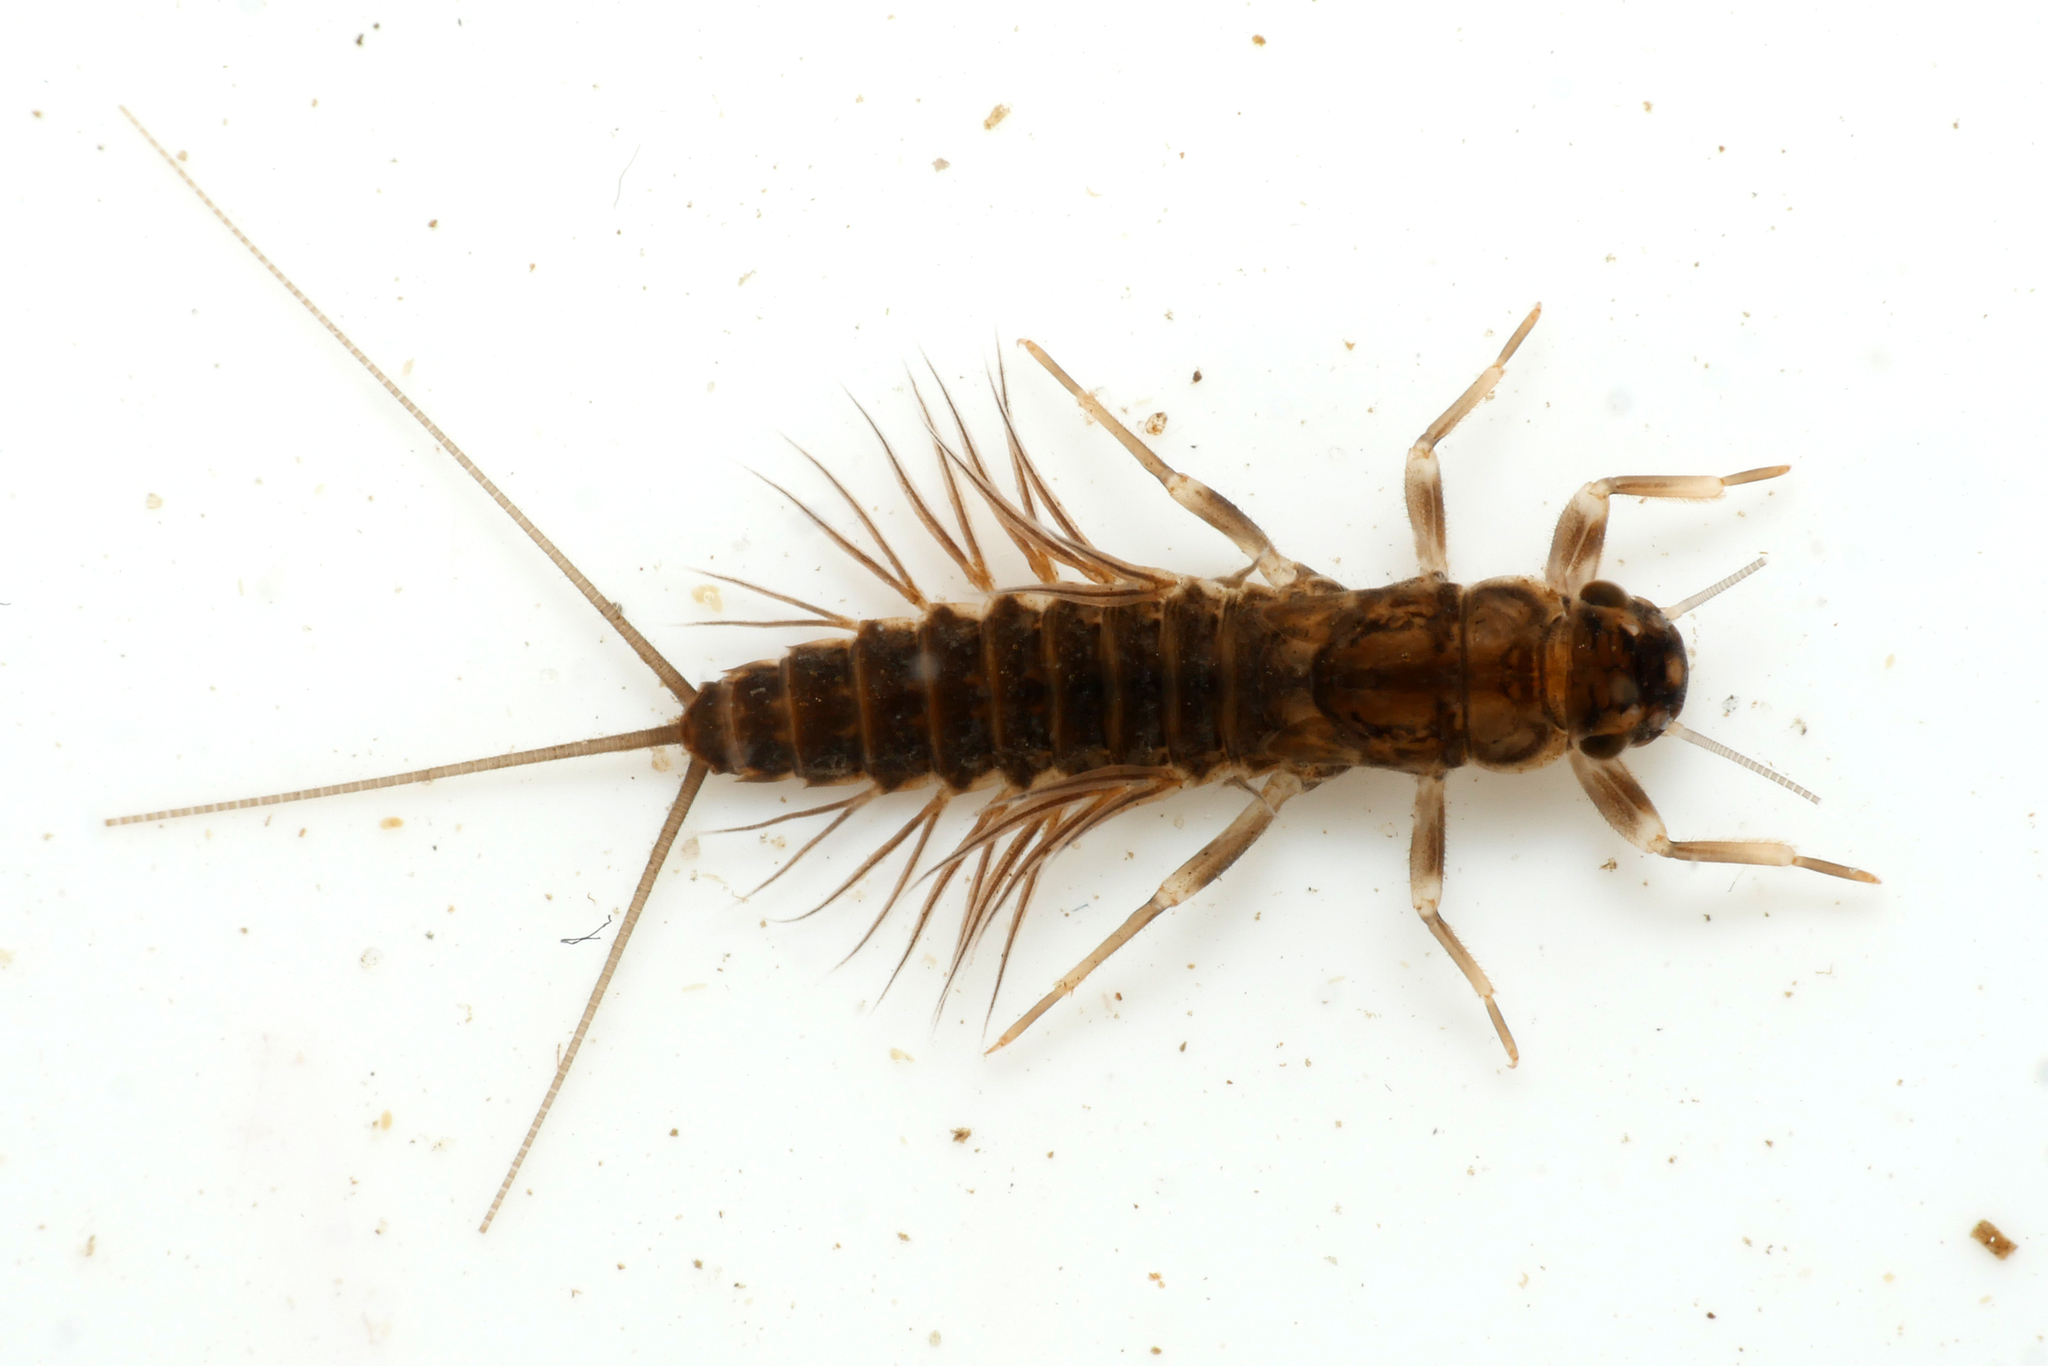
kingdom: Animalia
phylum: Arthropoda
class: Insecta
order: Ephemeroptera
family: Leptophlebiidae
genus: Paraleptophlebia
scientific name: Paraleptophlebia submarginata
